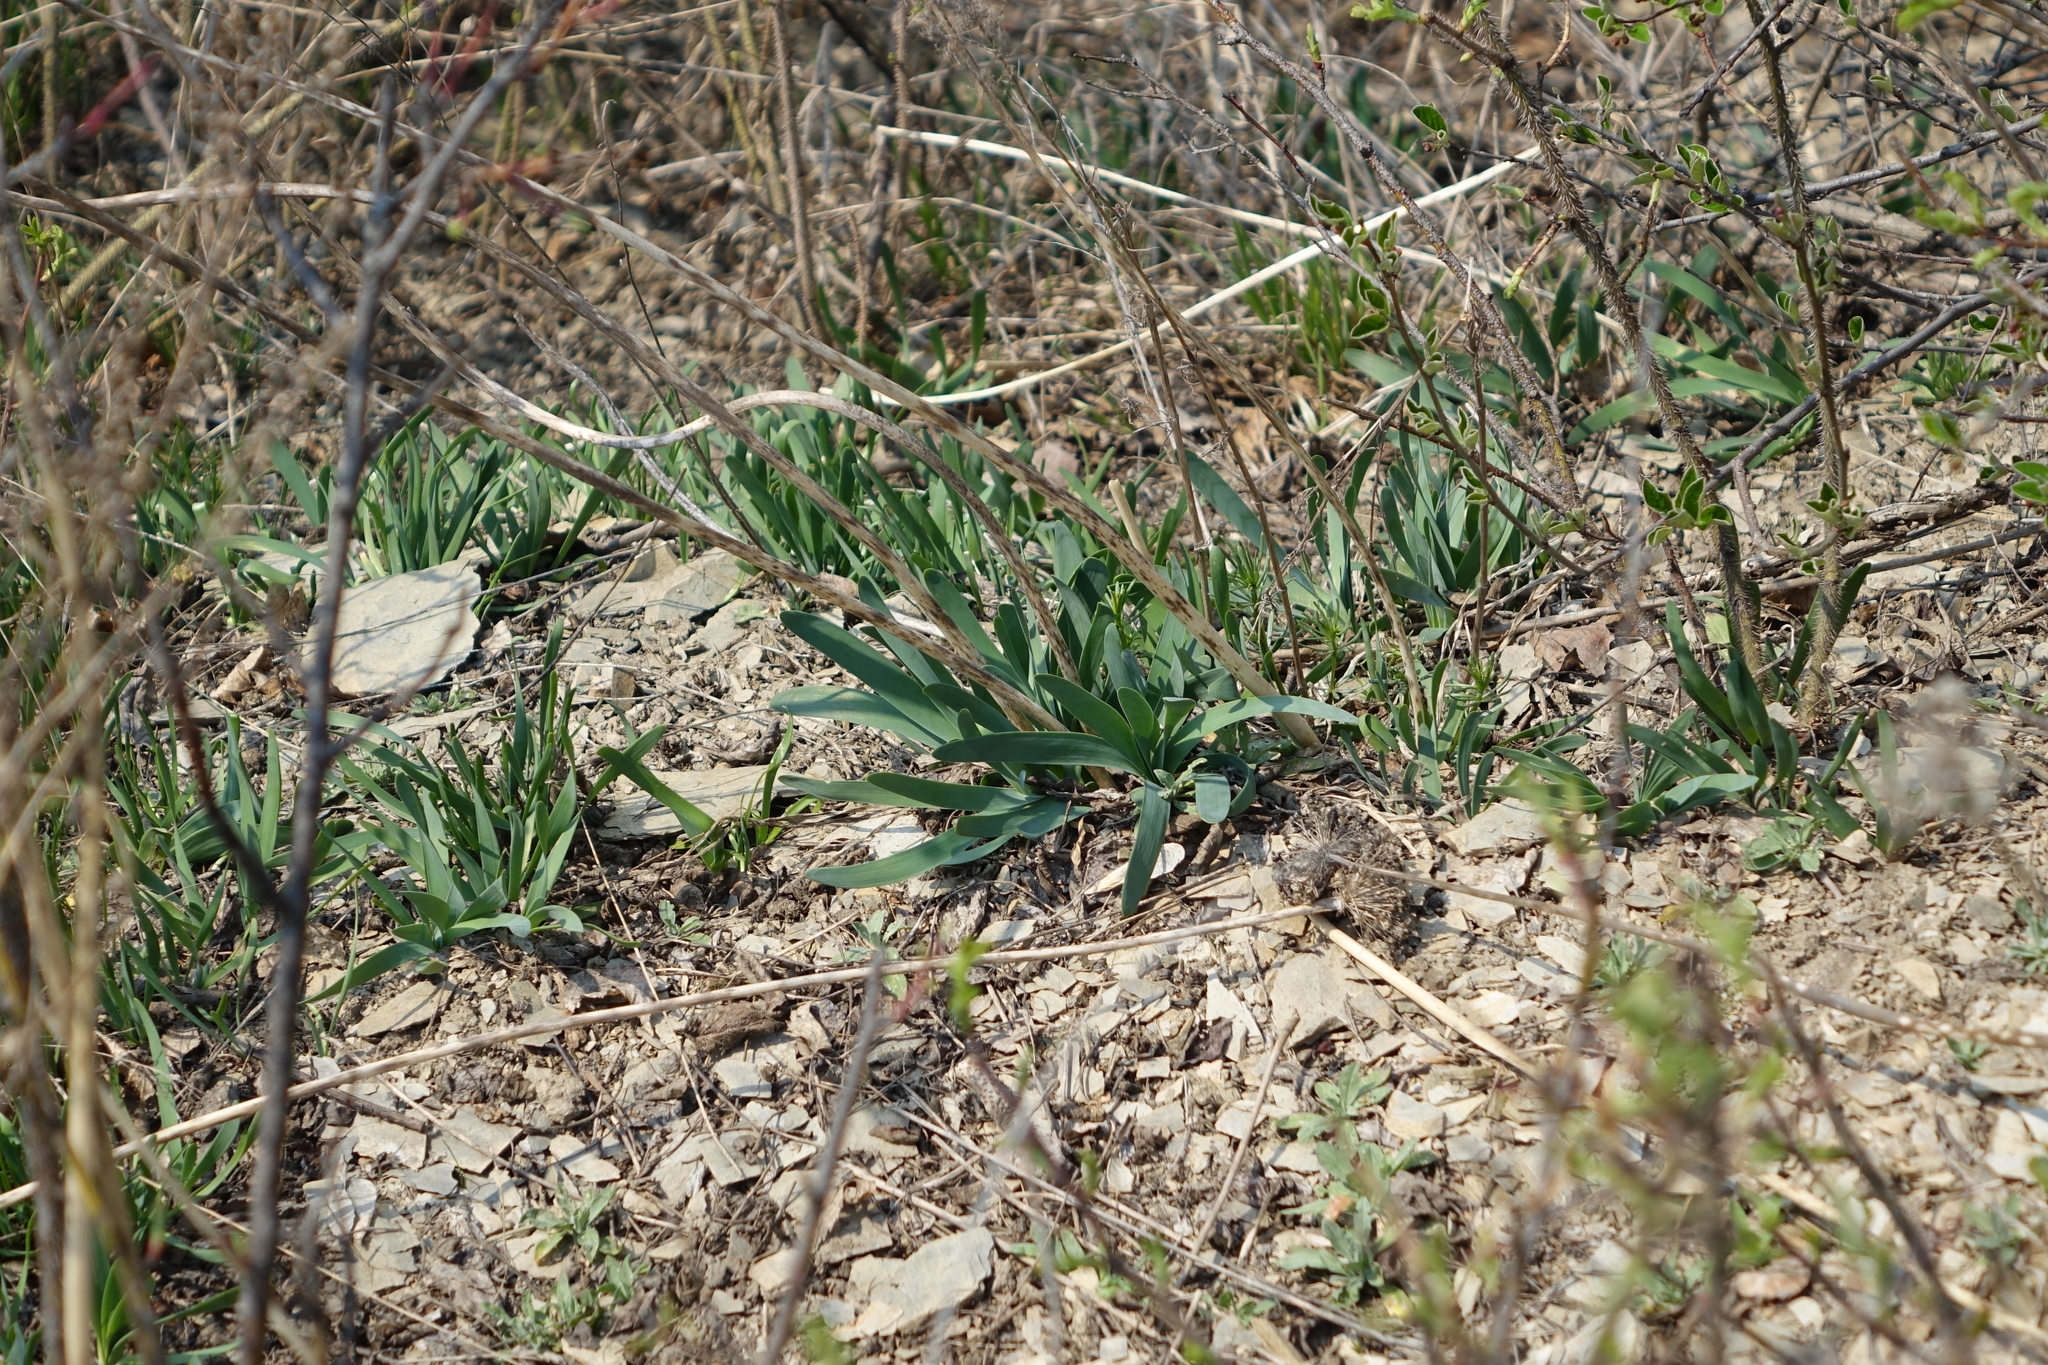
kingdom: Plantae
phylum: Tracheophyta
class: Liliopsida
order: Asparagales
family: Amaryllidaceae
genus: Allium
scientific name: Allium nutans
